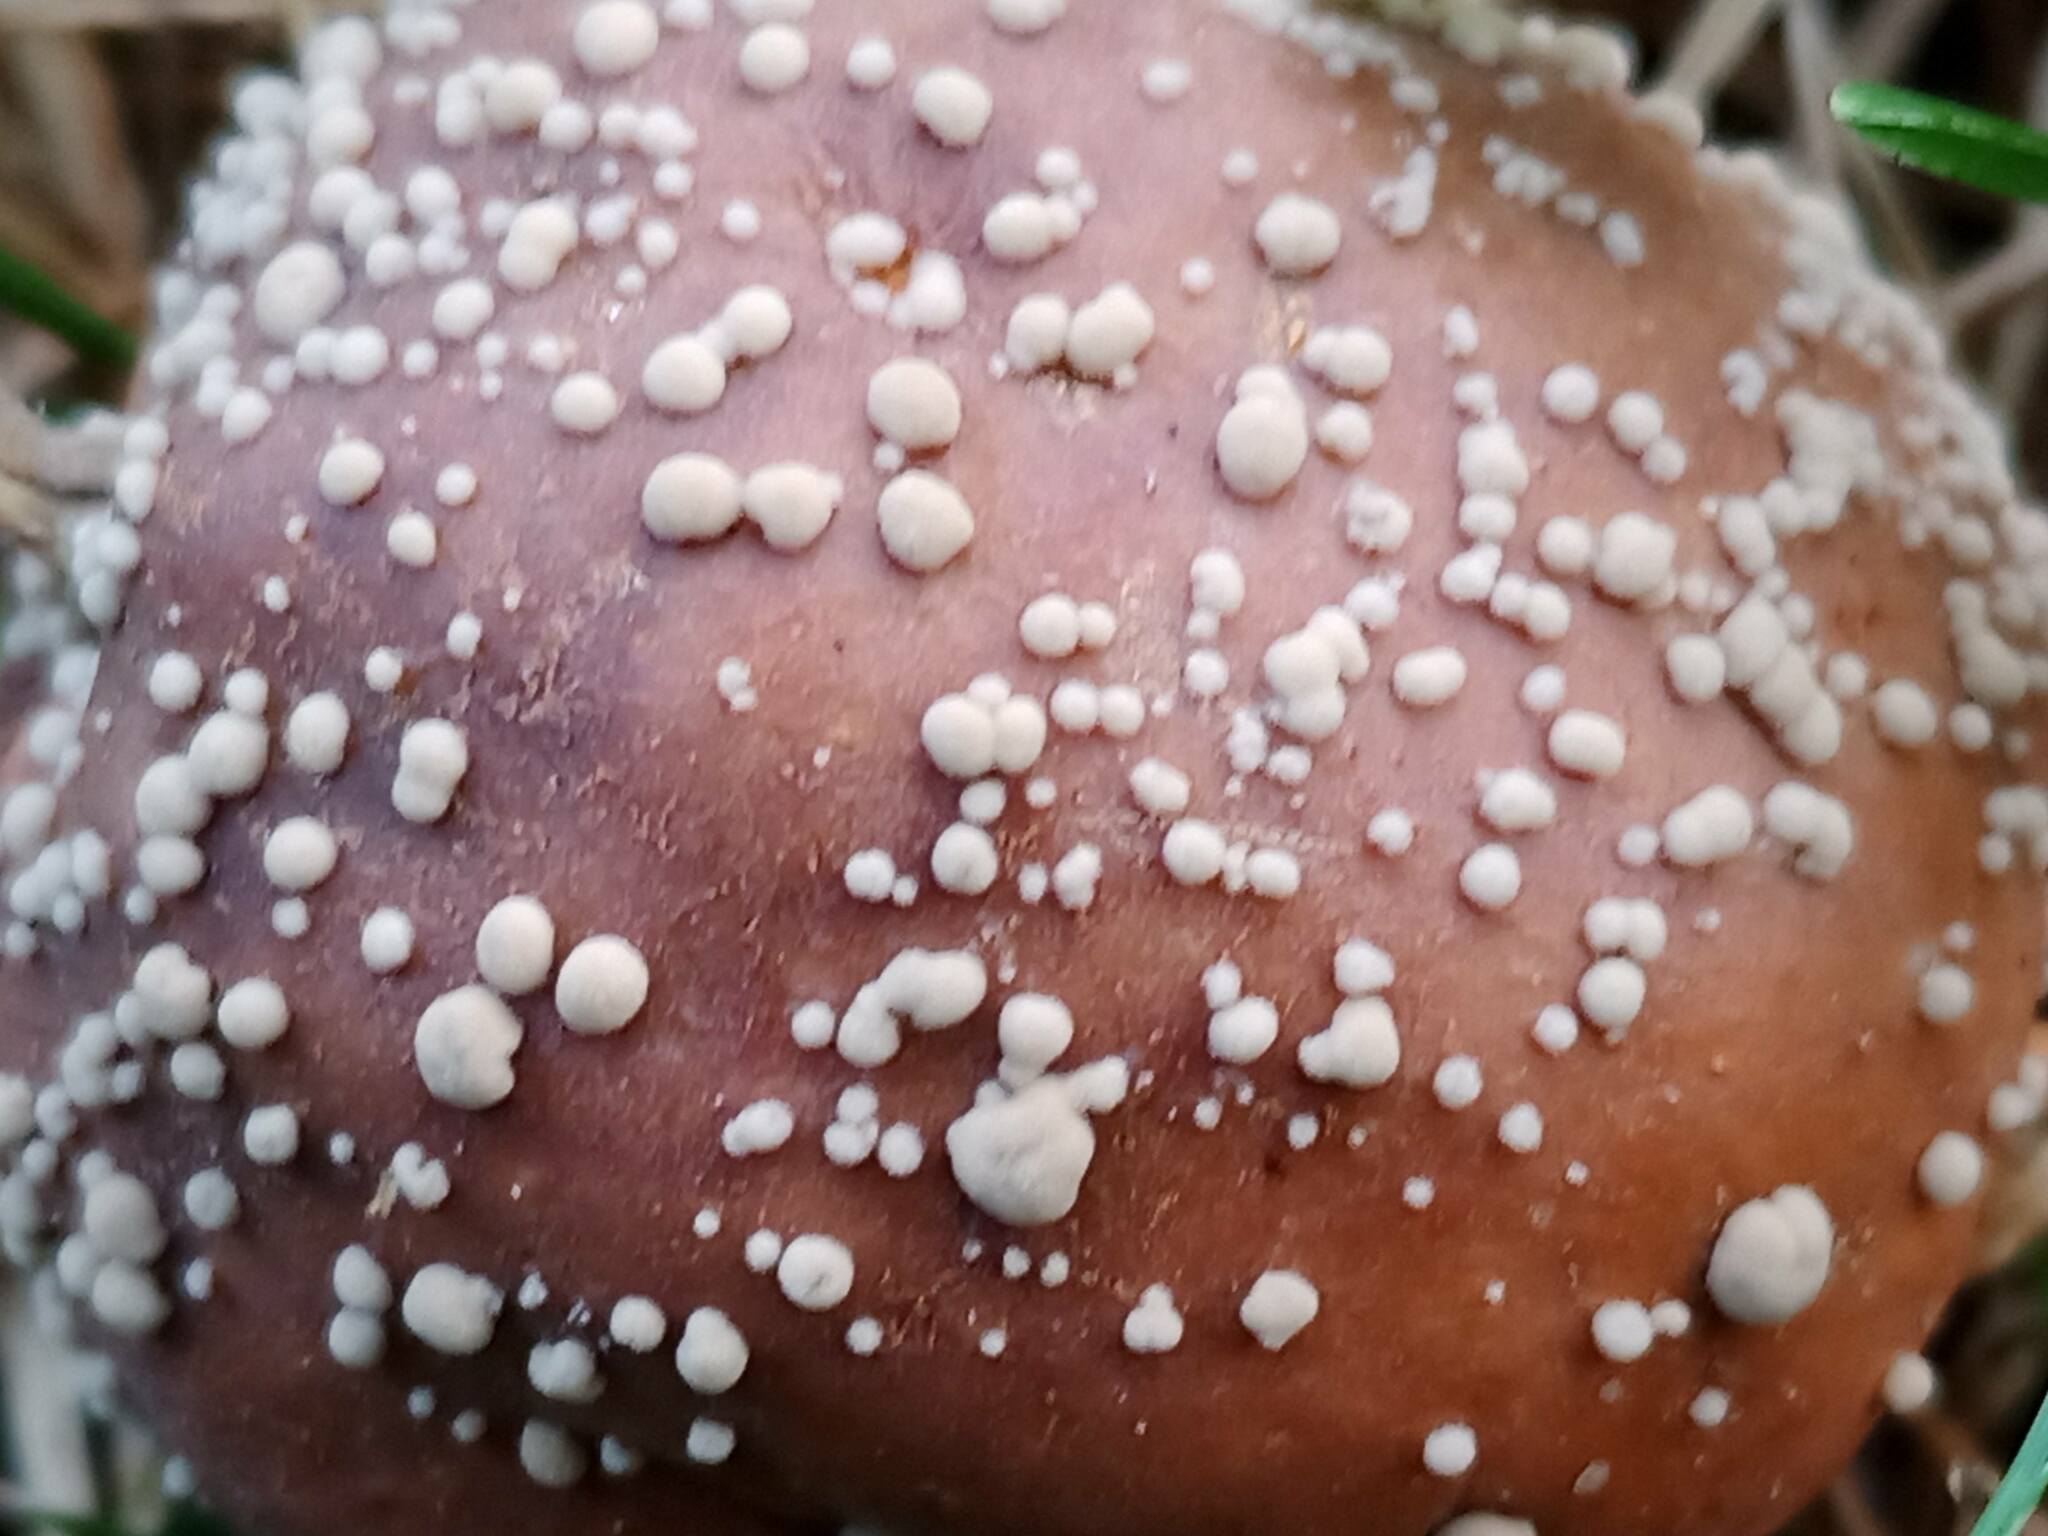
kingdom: Fungi
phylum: Ascomycota
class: Eurotiomycetes
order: Eurotiales
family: Aspergillaceae
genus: Penicillium
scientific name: Penicillium expansum
